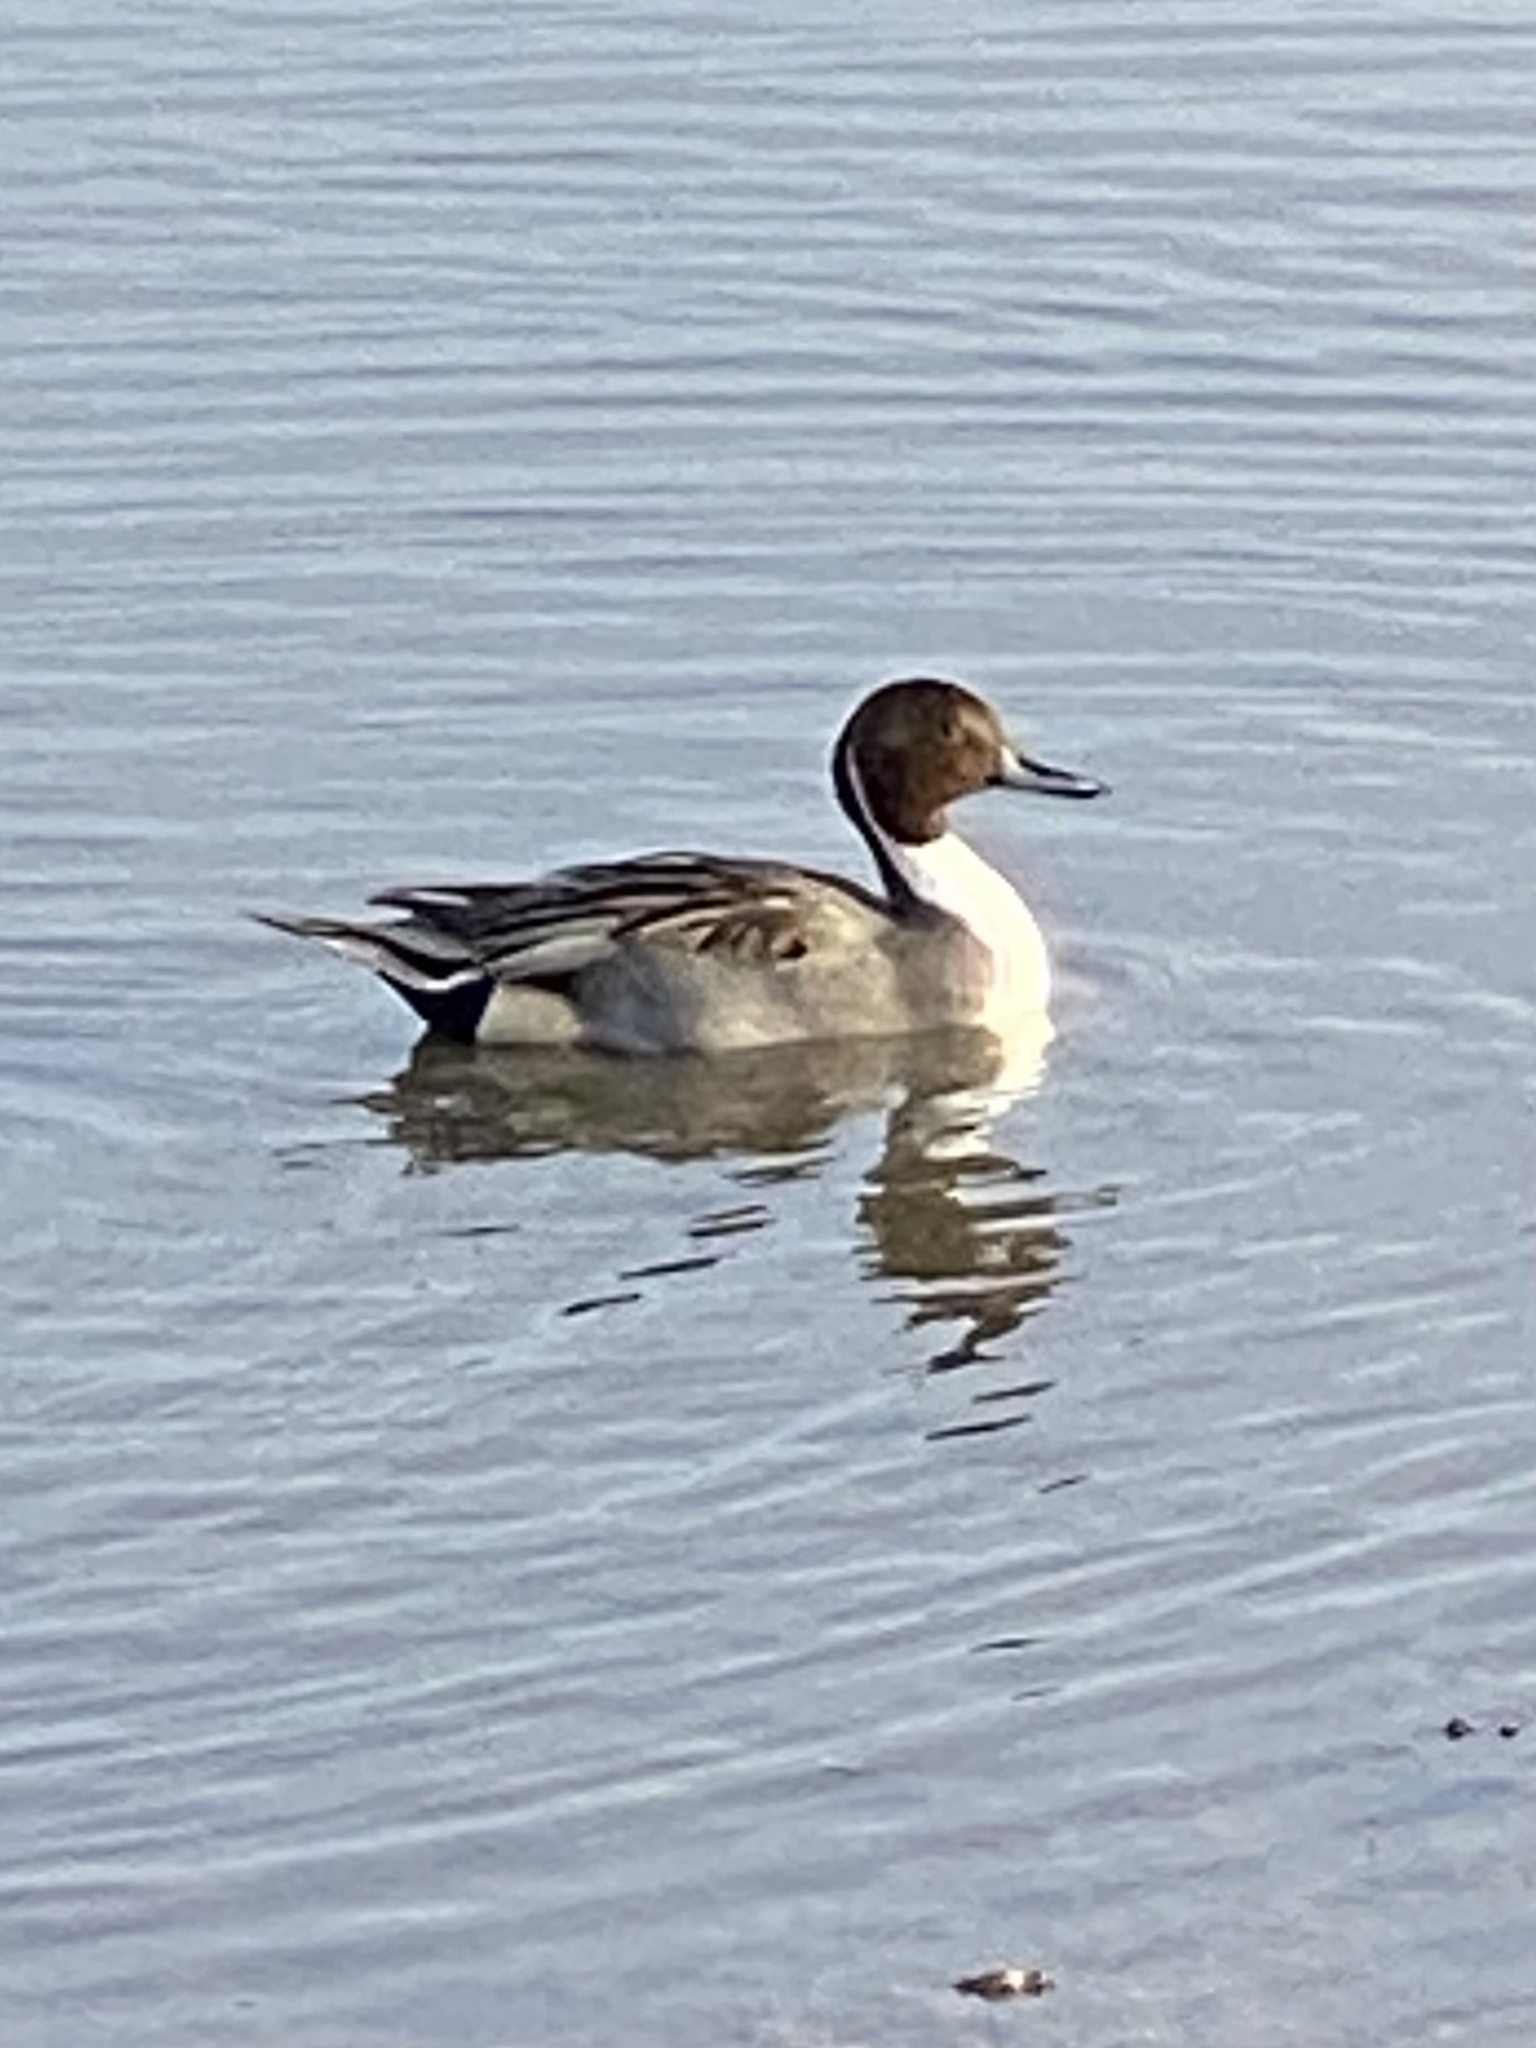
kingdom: Animalia
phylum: Chordata
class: Aves
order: Anseriformes
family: Anatidae
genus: Anas
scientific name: Anas acuta
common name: Northern pintail
